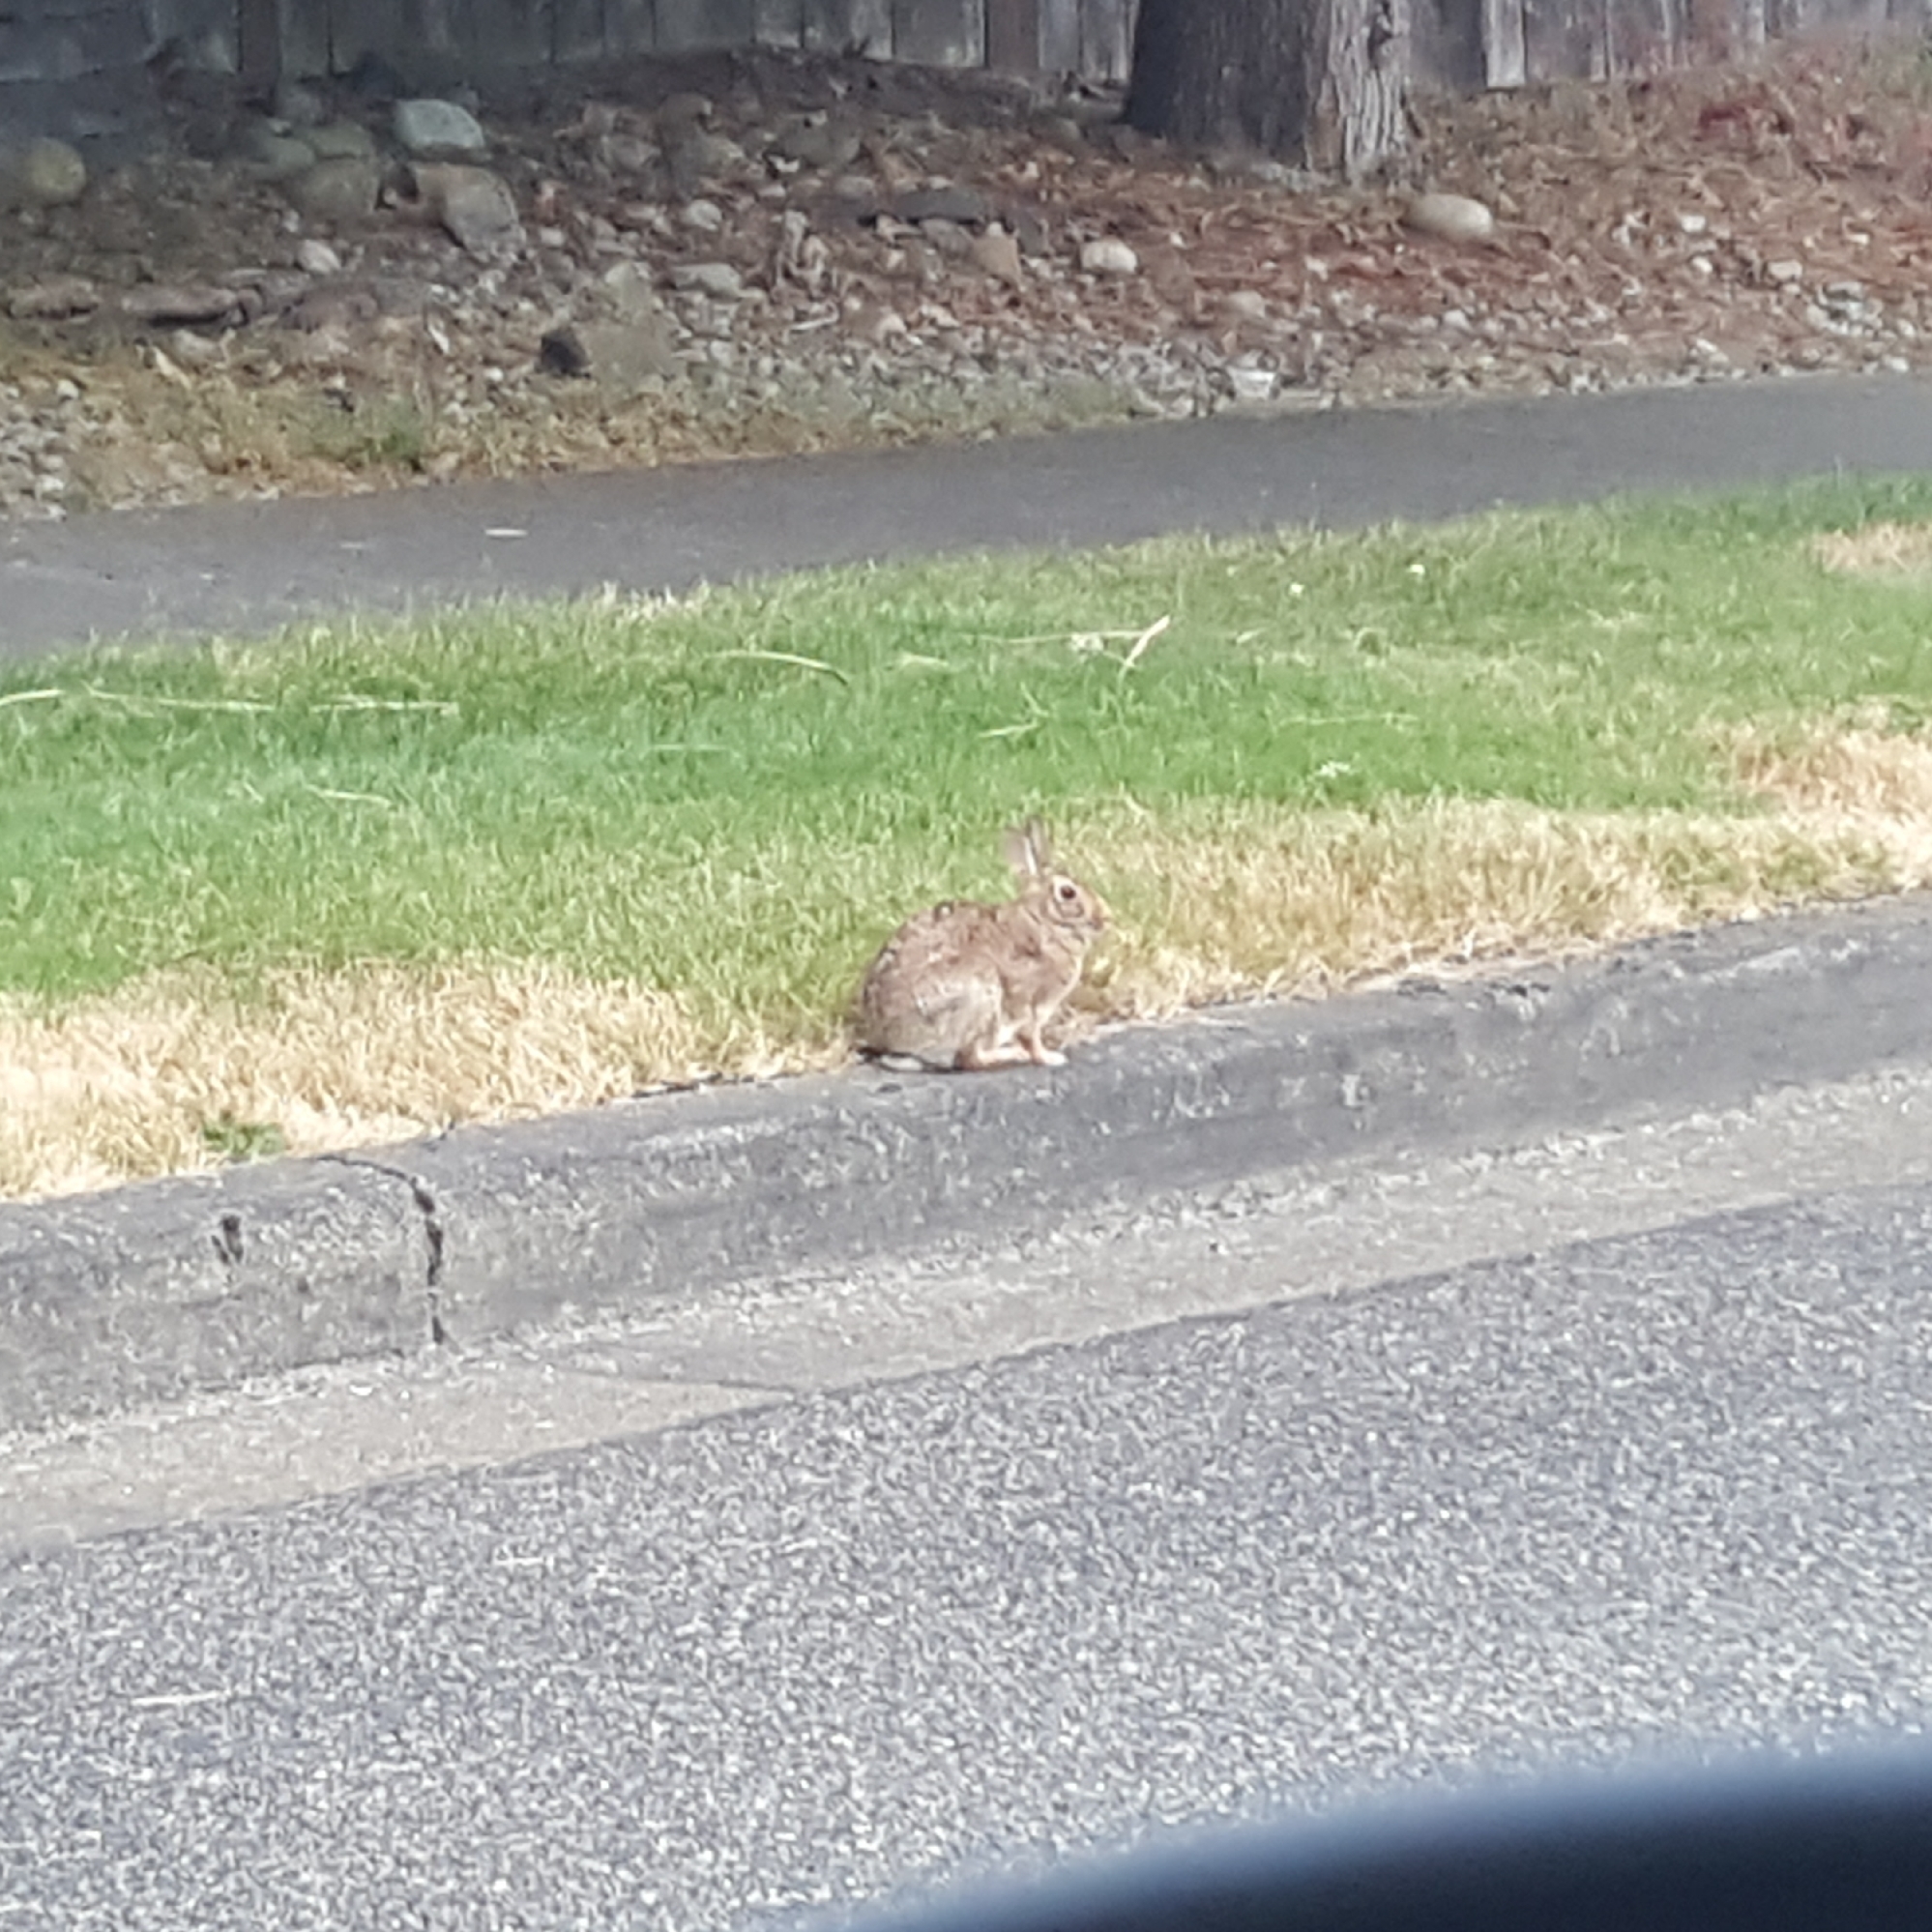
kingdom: Animalia
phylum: Chordata
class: Mammalia
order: Lagomorpha
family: Leporidae
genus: Sylvilagus
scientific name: Sylvilagus floridanus
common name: Eastern cottontail
